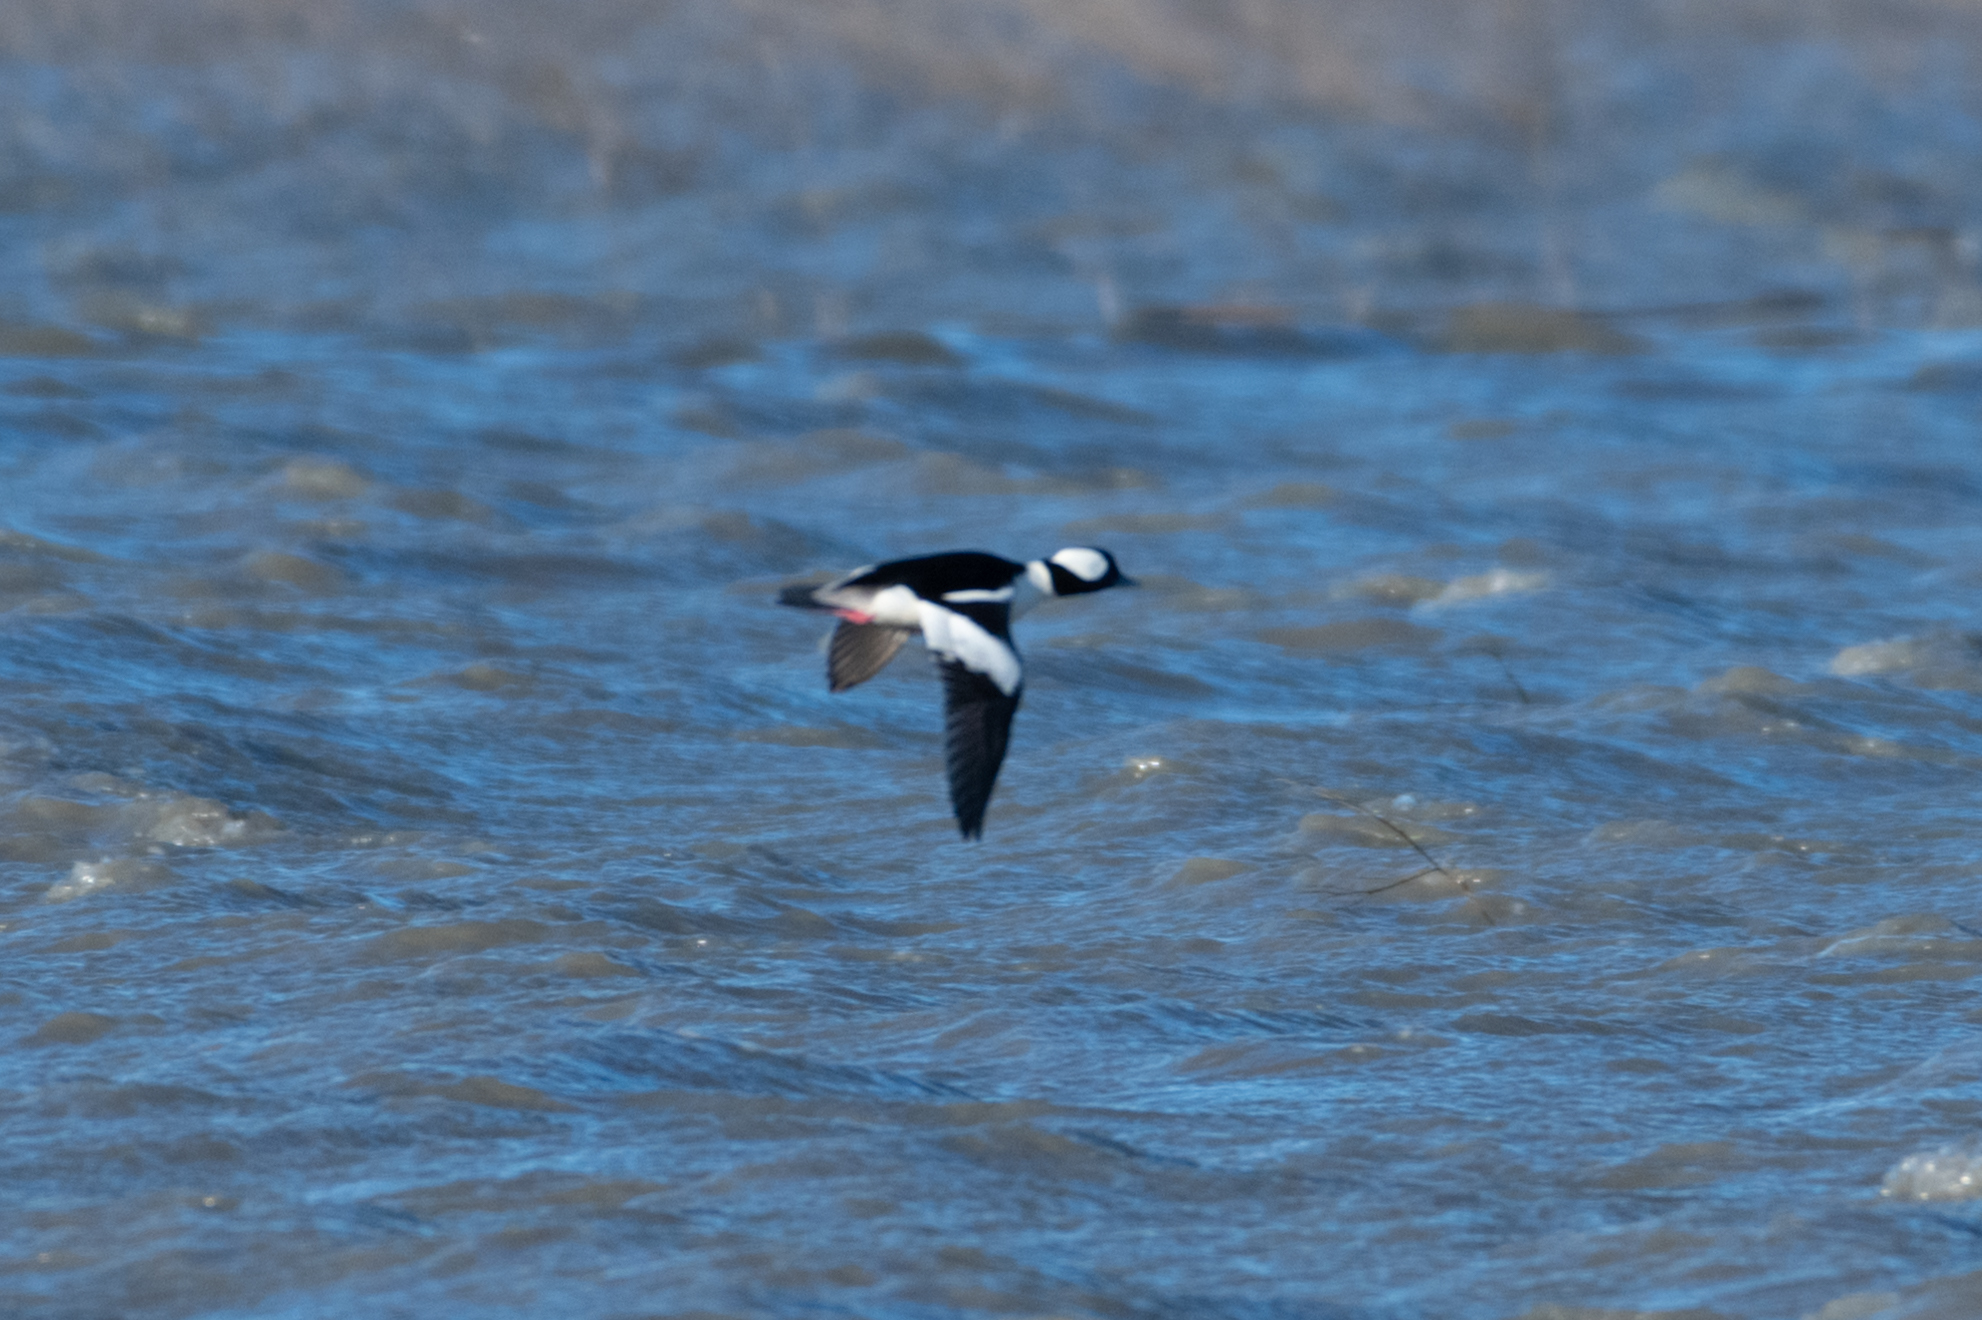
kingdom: Animalia
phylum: Chordata
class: Aves
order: Anseriformes
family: Anatidae
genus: Bucephala
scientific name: Bucephala albeola
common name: Bufflehead
